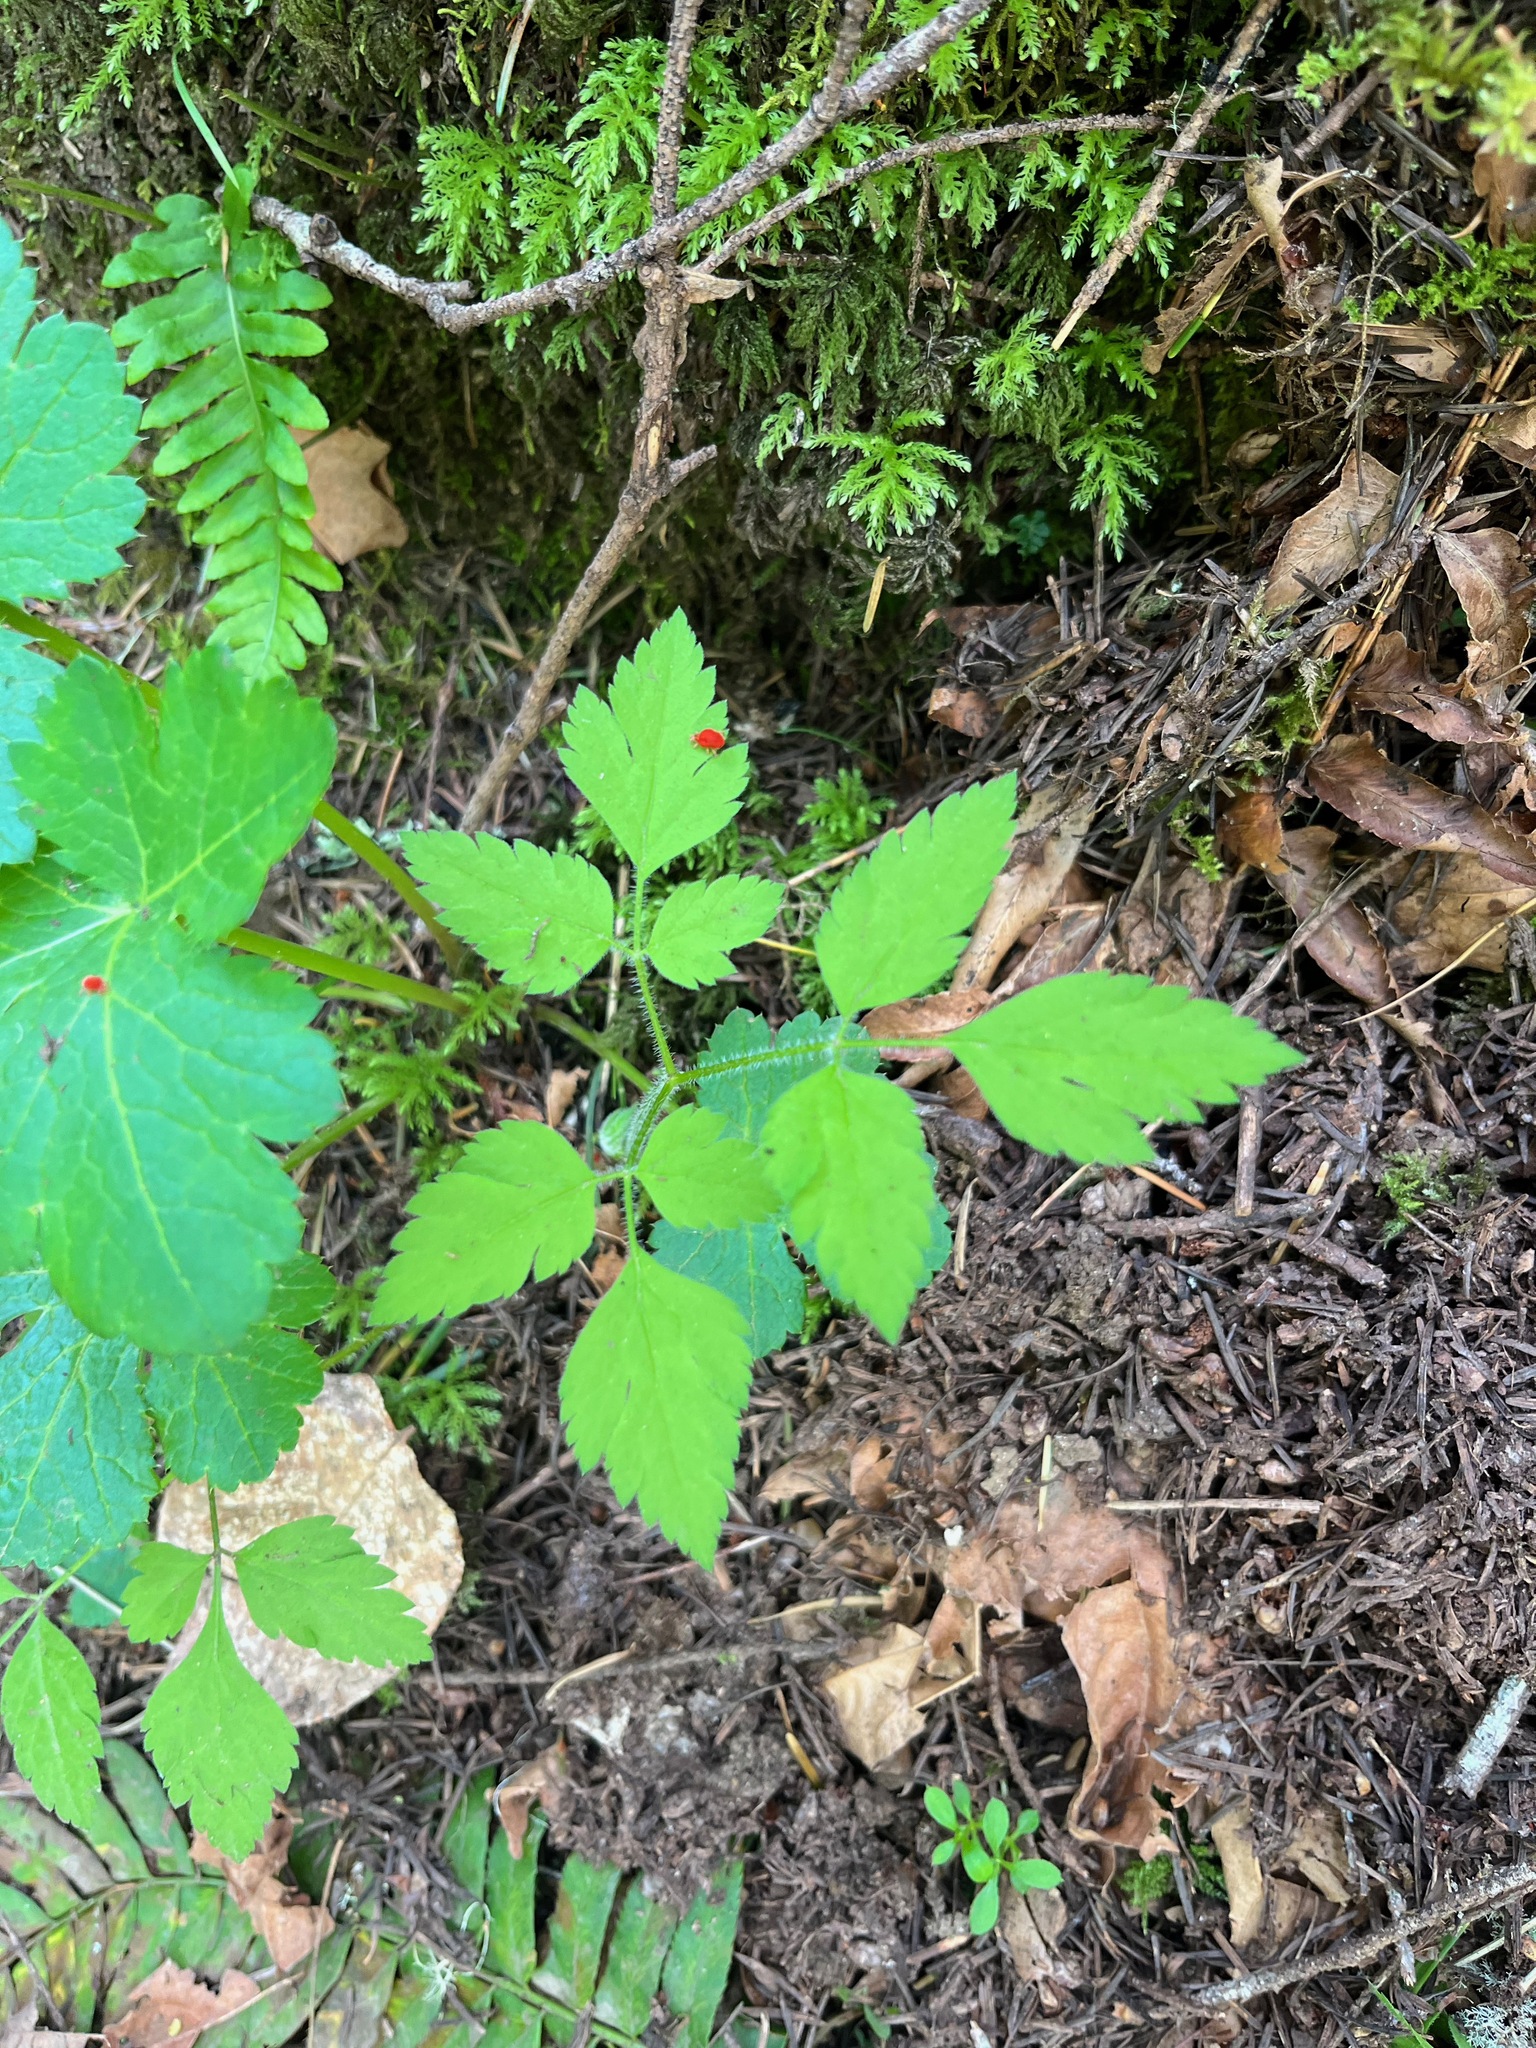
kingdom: Plantae
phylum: Tracheophyta
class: Magnoliopsida
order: Apiales
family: Apiaceae
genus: Osmorhiza
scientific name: Osmorhiza berteroi
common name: Mountain sweet cicely
